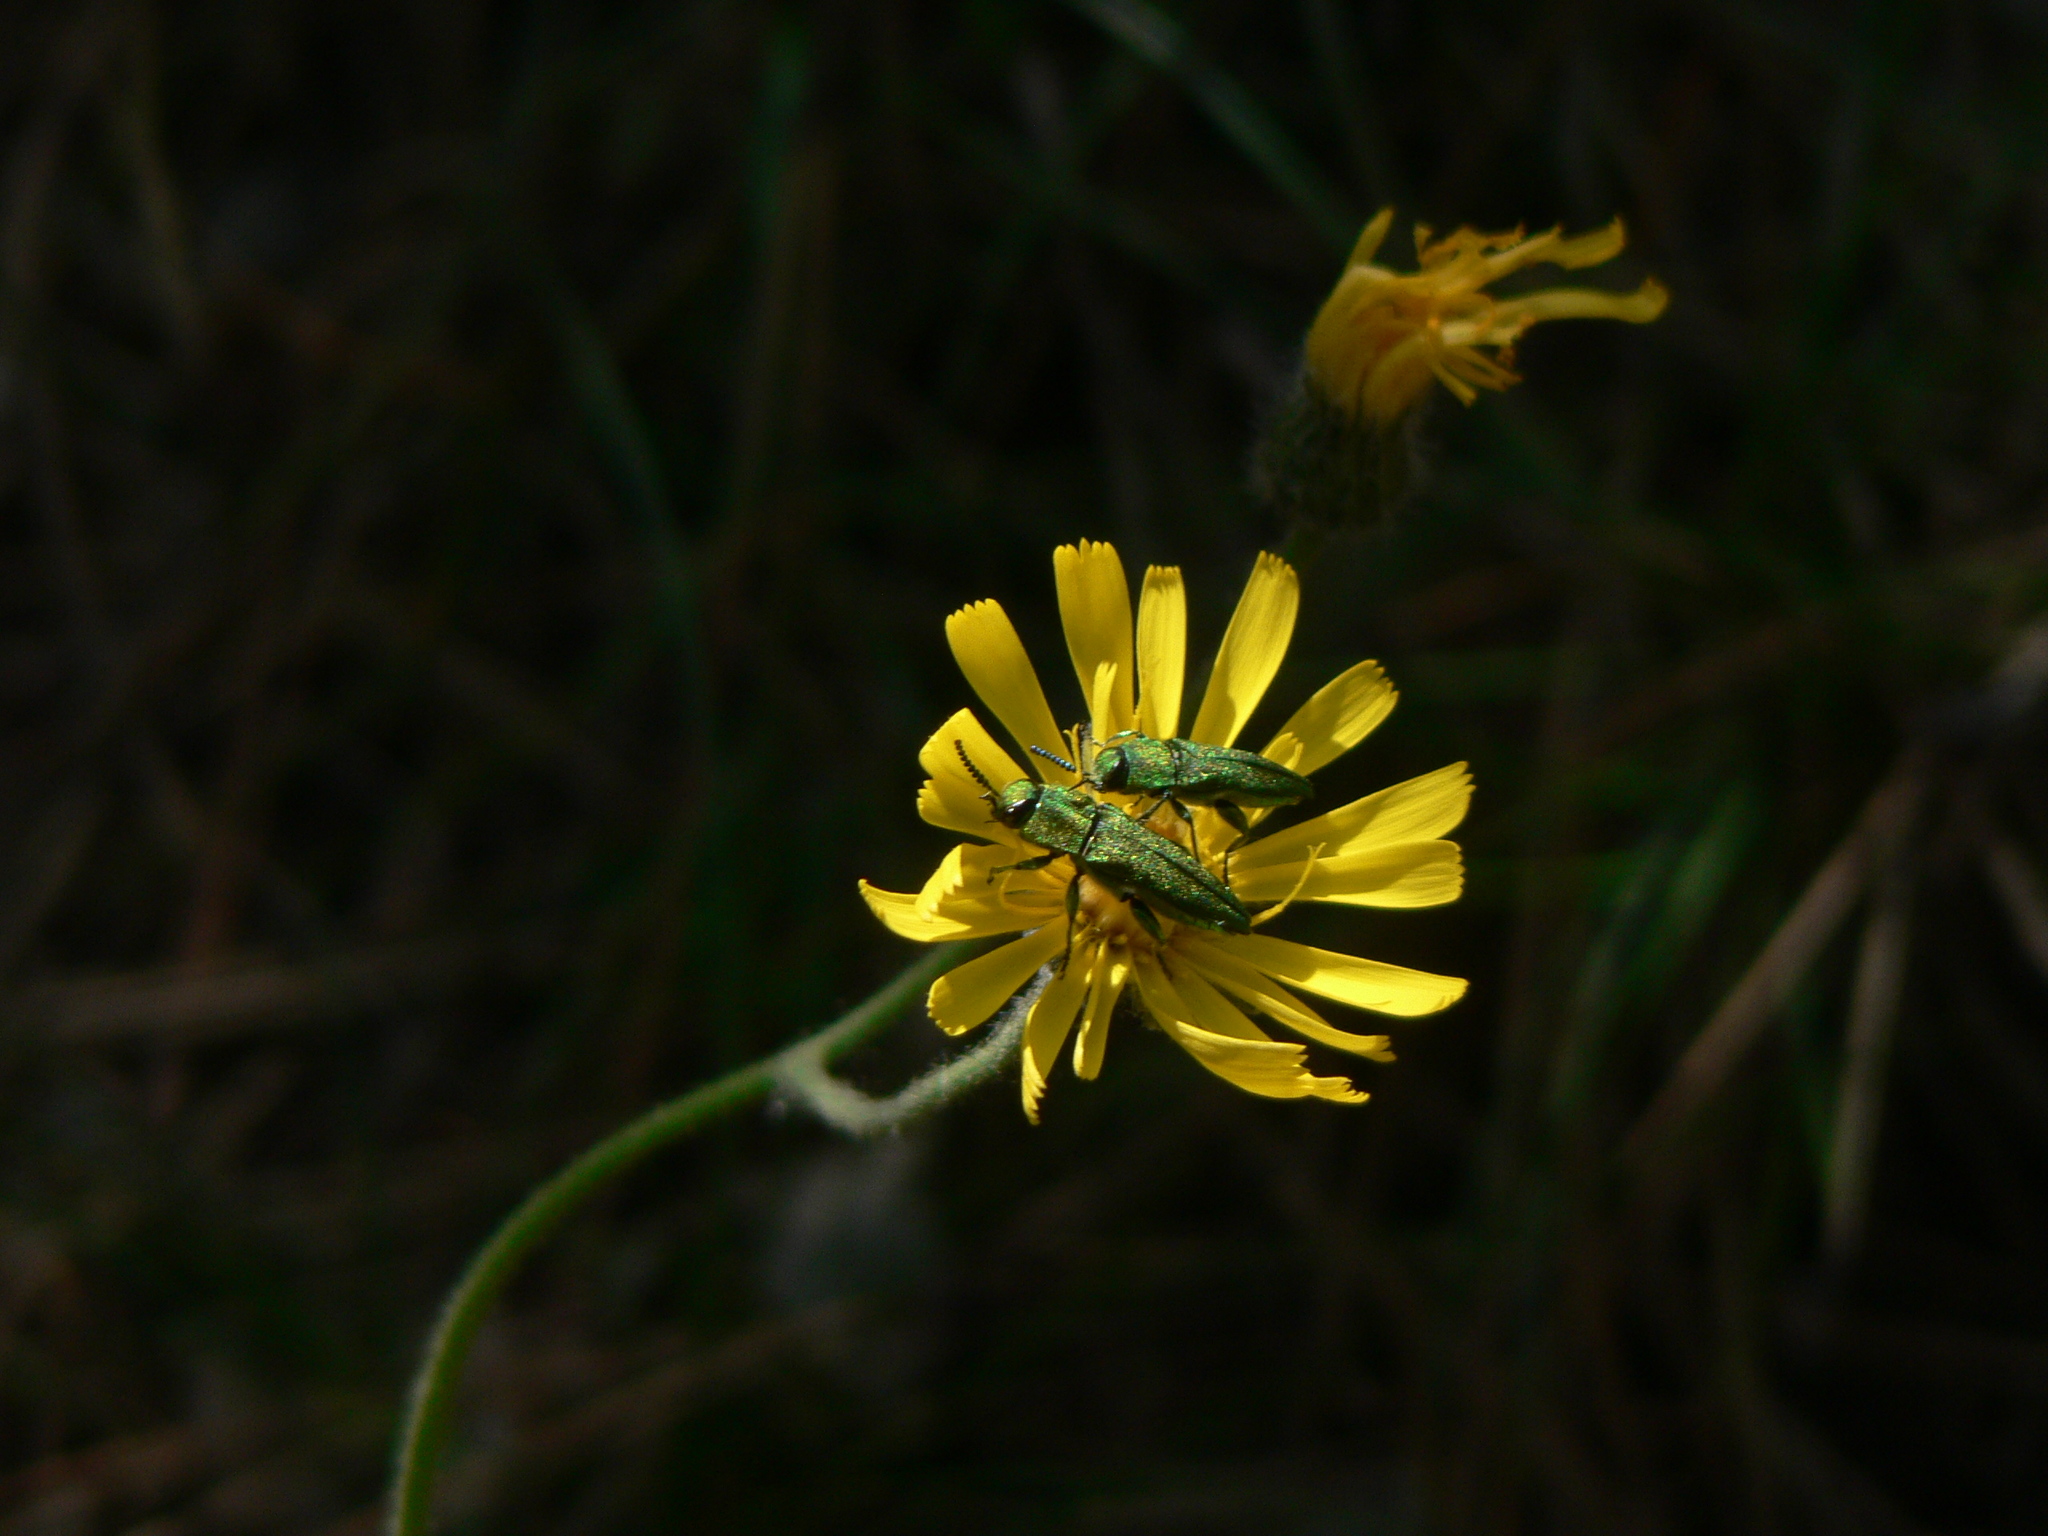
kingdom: Animalia
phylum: Arthropoda
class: Insecta
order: Coleoptera
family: Buprestidae
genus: Anthaxia
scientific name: Anthaxia hungarica
